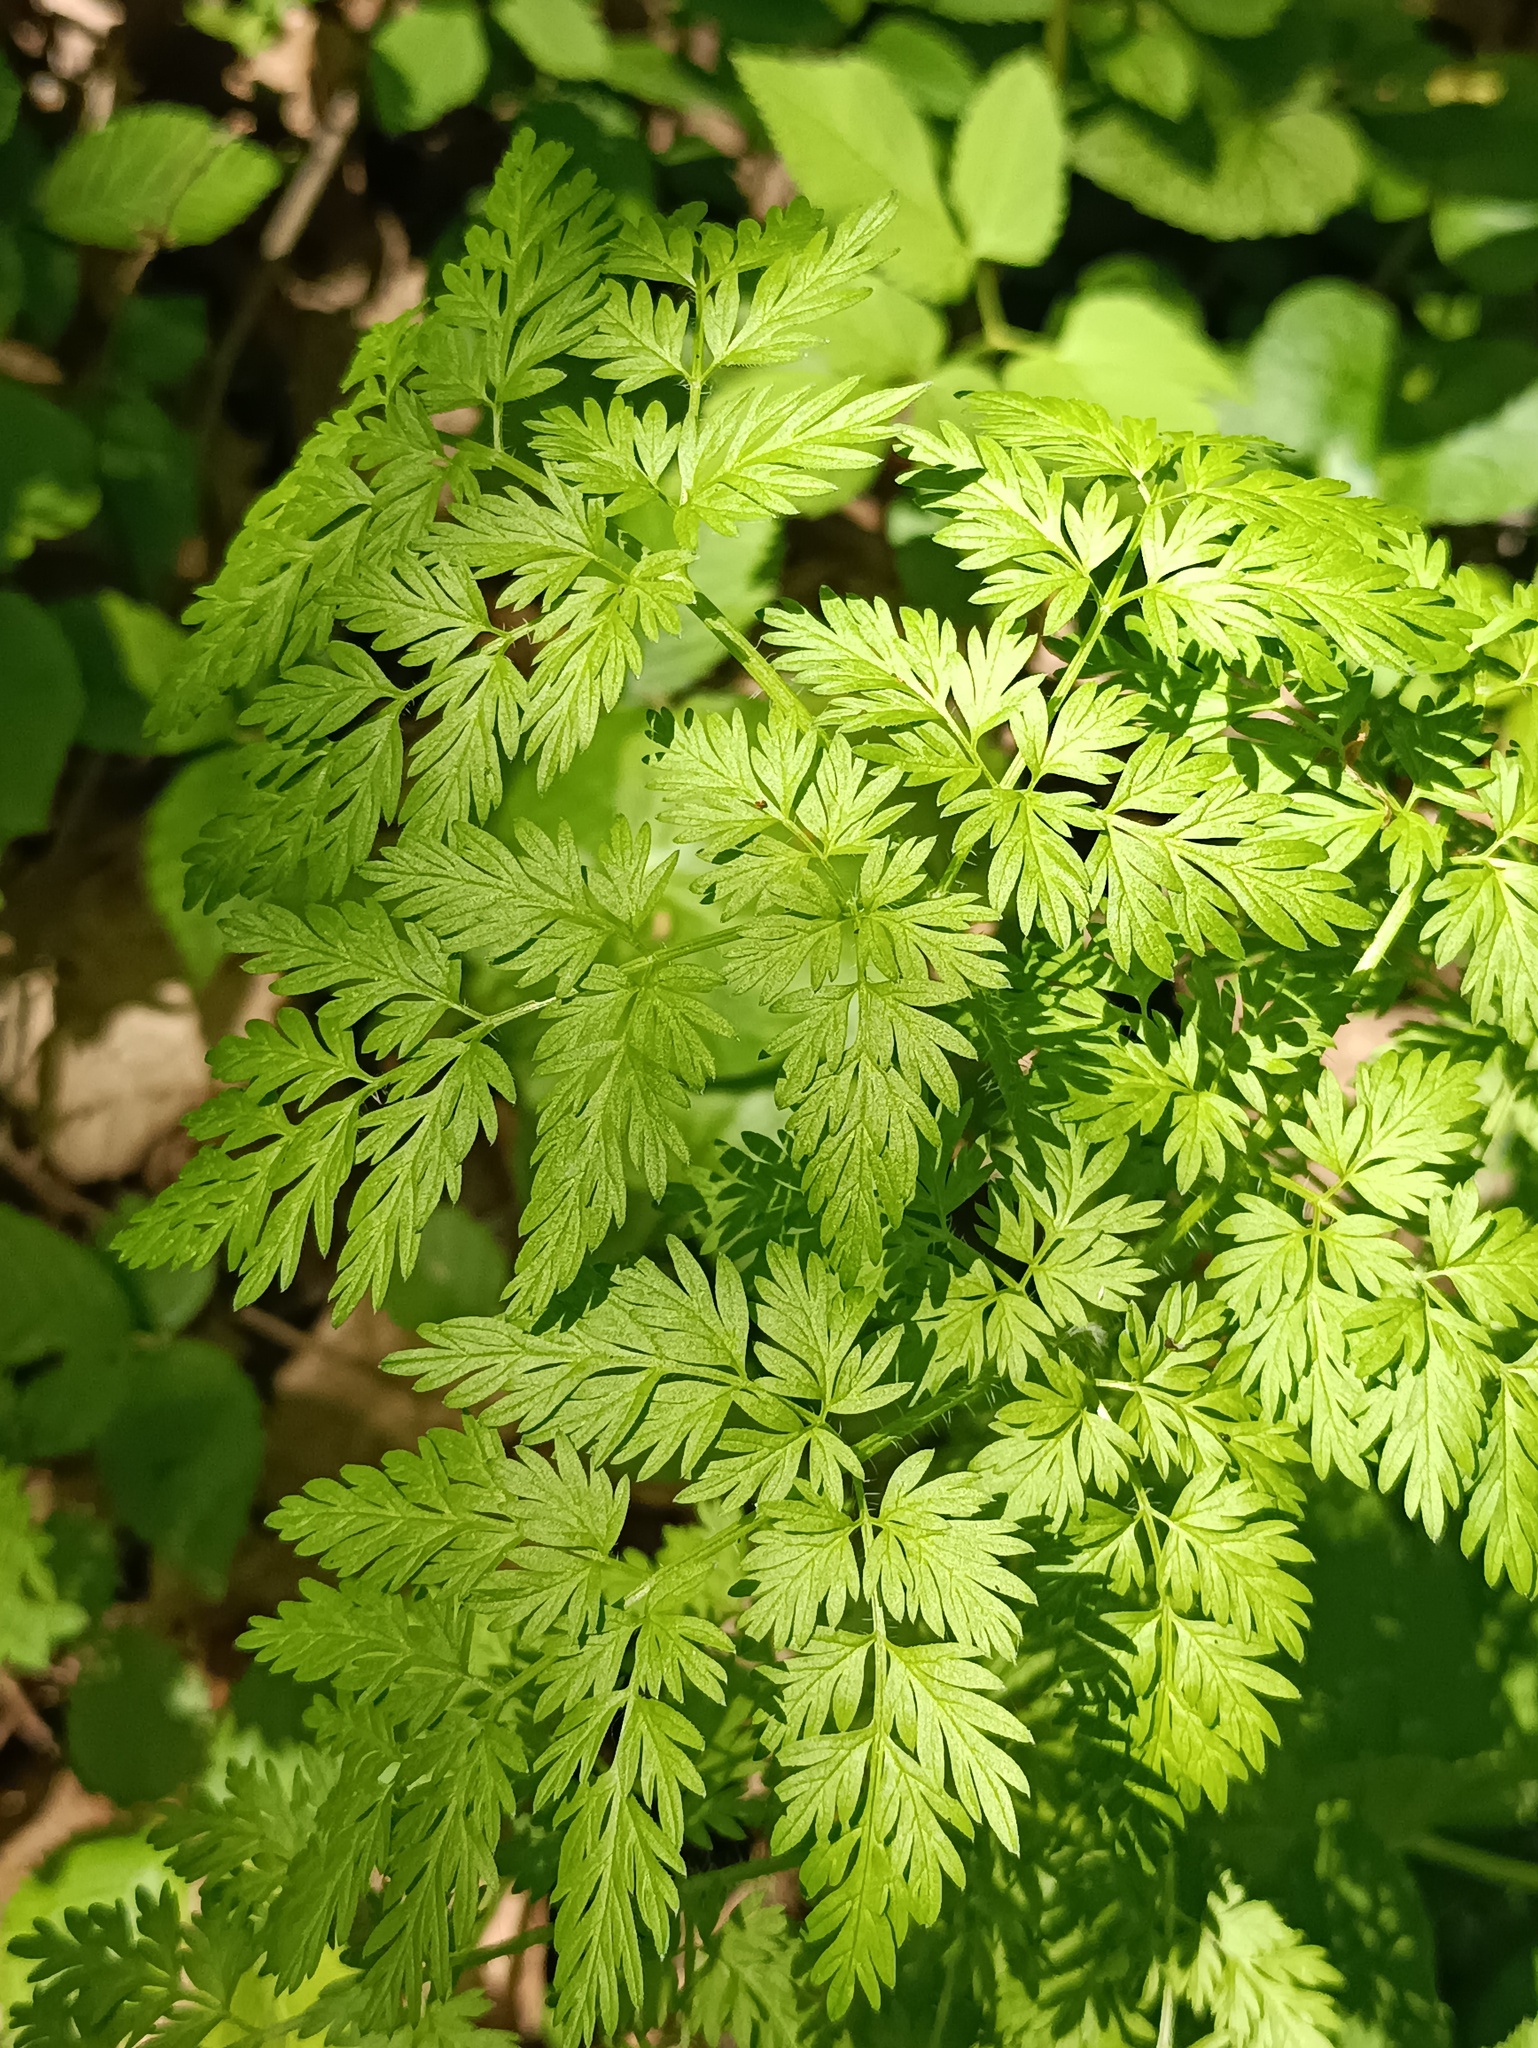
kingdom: Plantae
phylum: Tracheophyta
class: Magnoliopsida
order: Apiales
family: Apiaceae
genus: Anthriscus
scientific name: Anthriscus sylvestris
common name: Cow parsley
